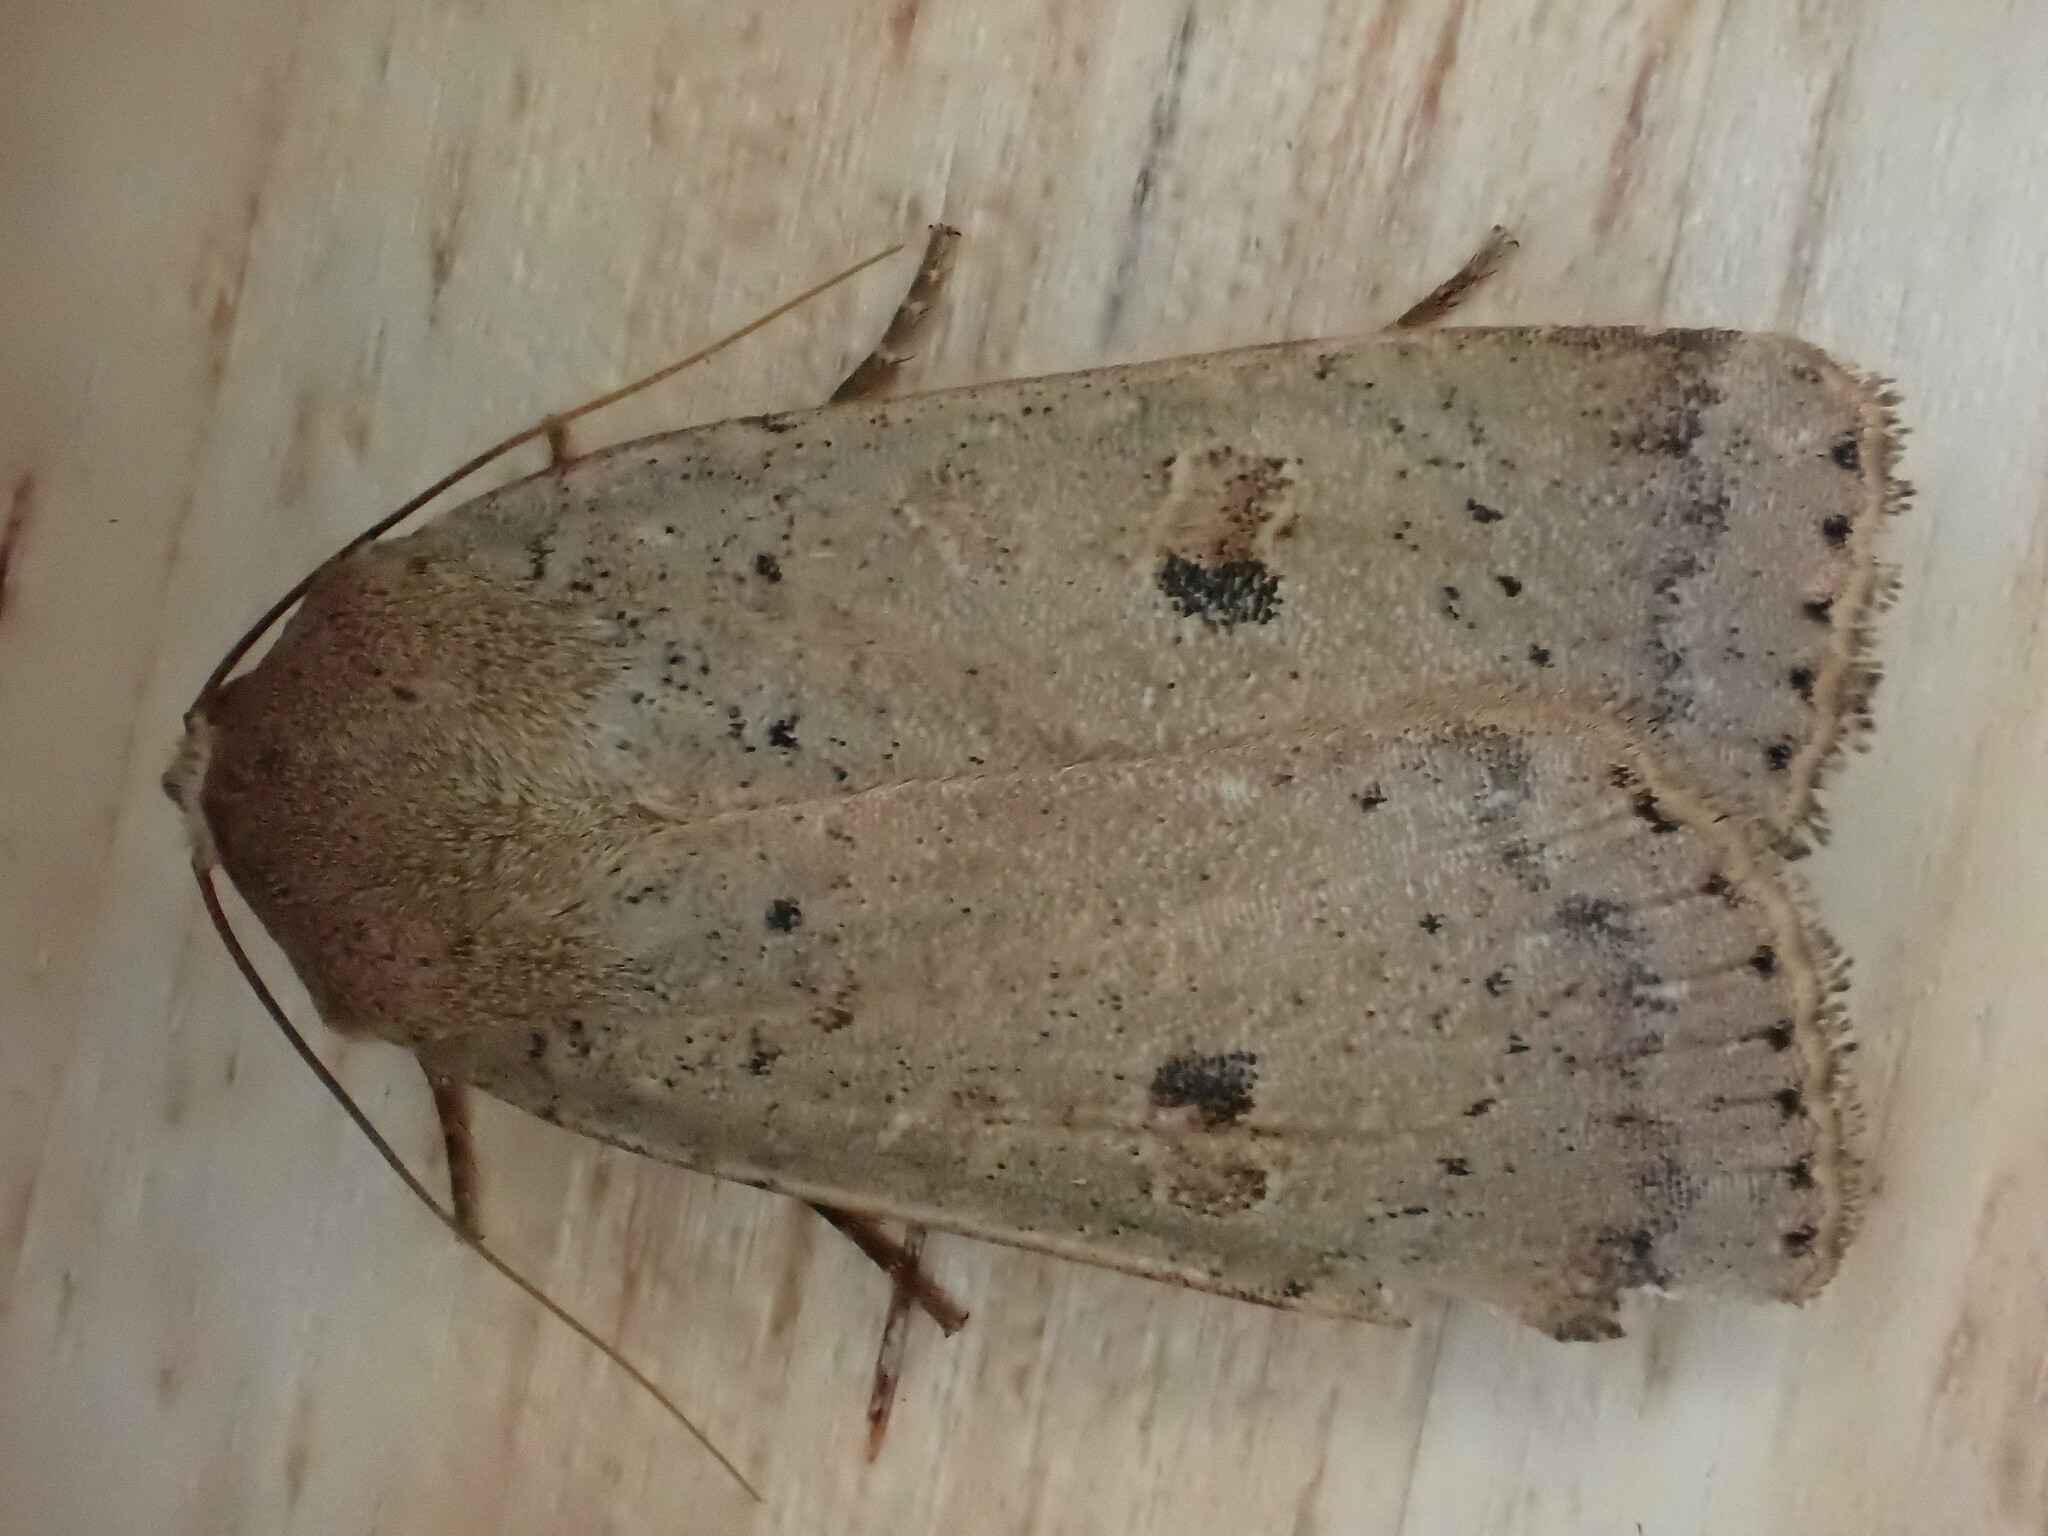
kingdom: Animalia
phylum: Arthropoda
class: Insecta
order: Lepidoptera
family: Noctuidae
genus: Noctua
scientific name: Noctua comes
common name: Lesser yellow underwing
